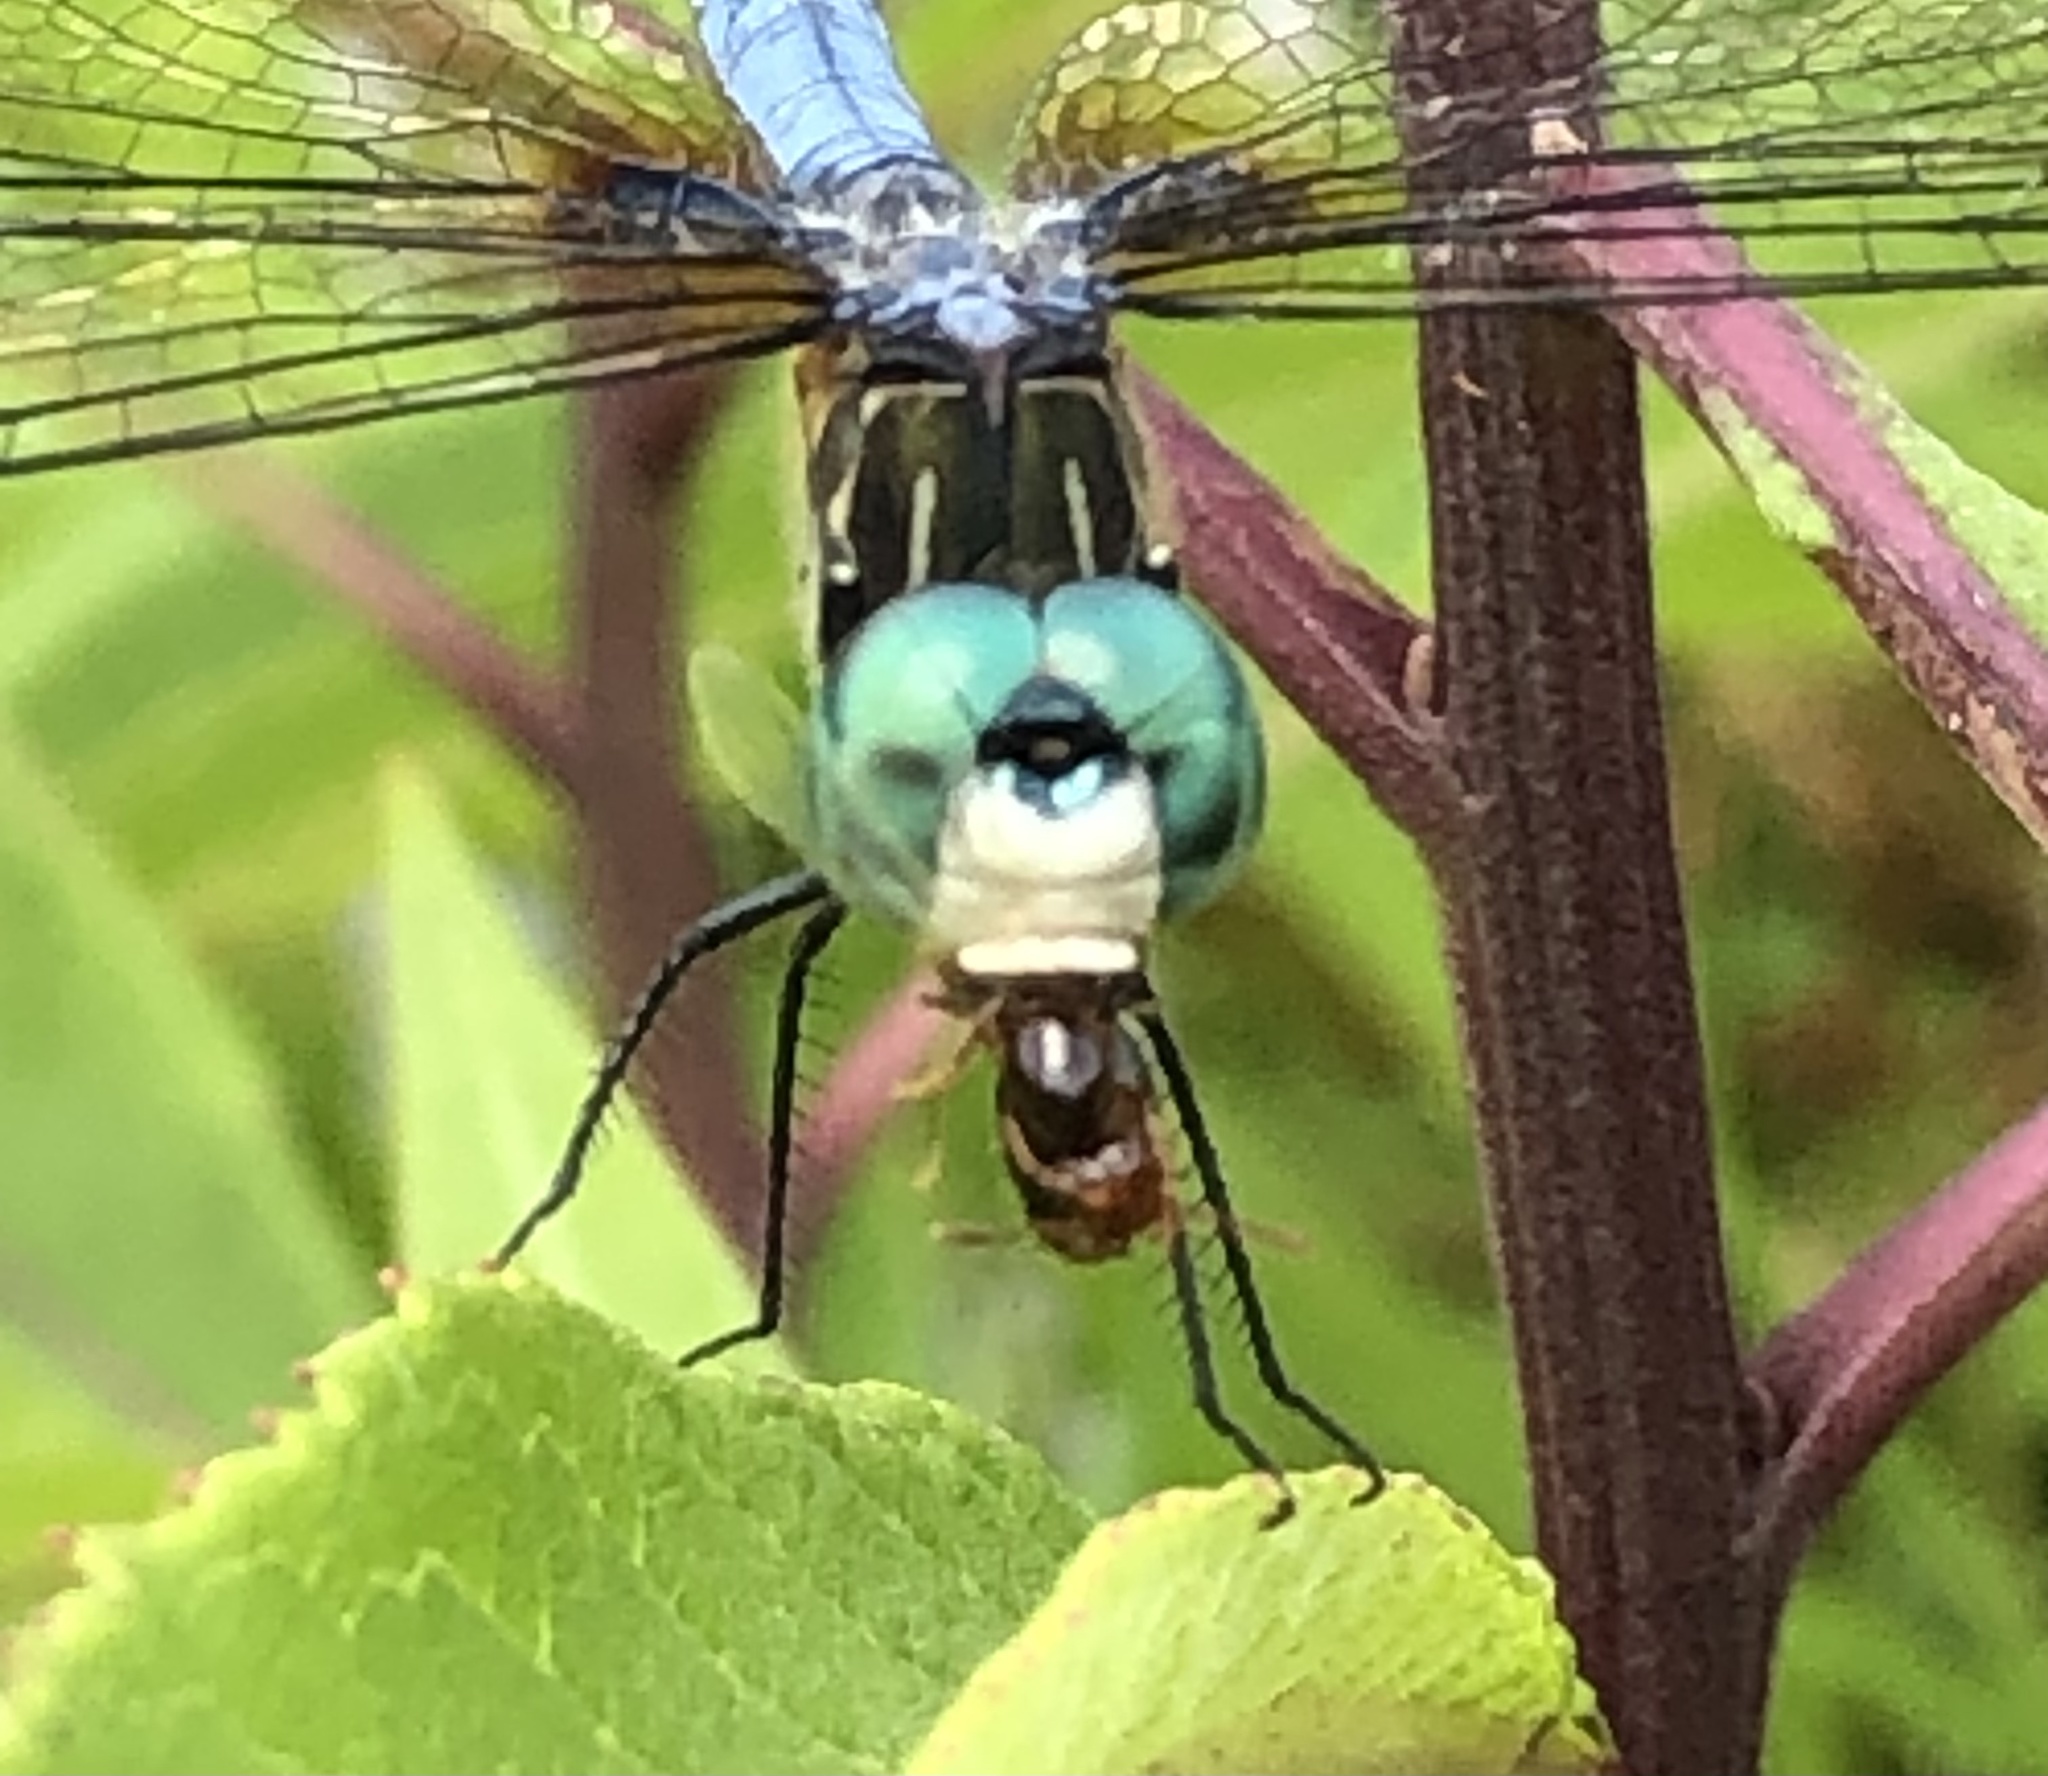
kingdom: Animalia
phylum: Arthropoda
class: Insecta
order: Odonata
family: Libellulidae
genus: Pachydiplax
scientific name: Pachydiplax longipennis
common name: Blue dasher
